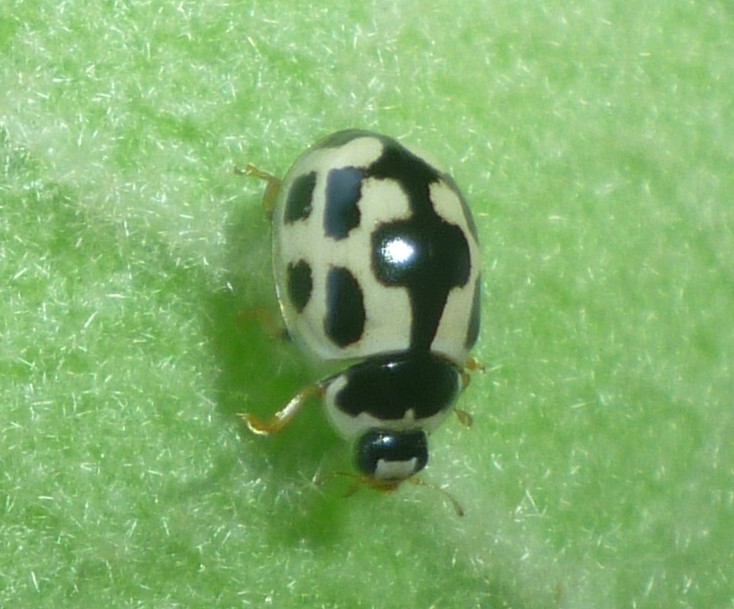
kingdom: Animalia
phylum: Arthropoda
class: Insecta
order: Coleoptera
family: Coccinellidae
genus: Propylaea
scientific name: Propylaea quatuordecimpunctata
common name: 14-spotted ladybird beetle
